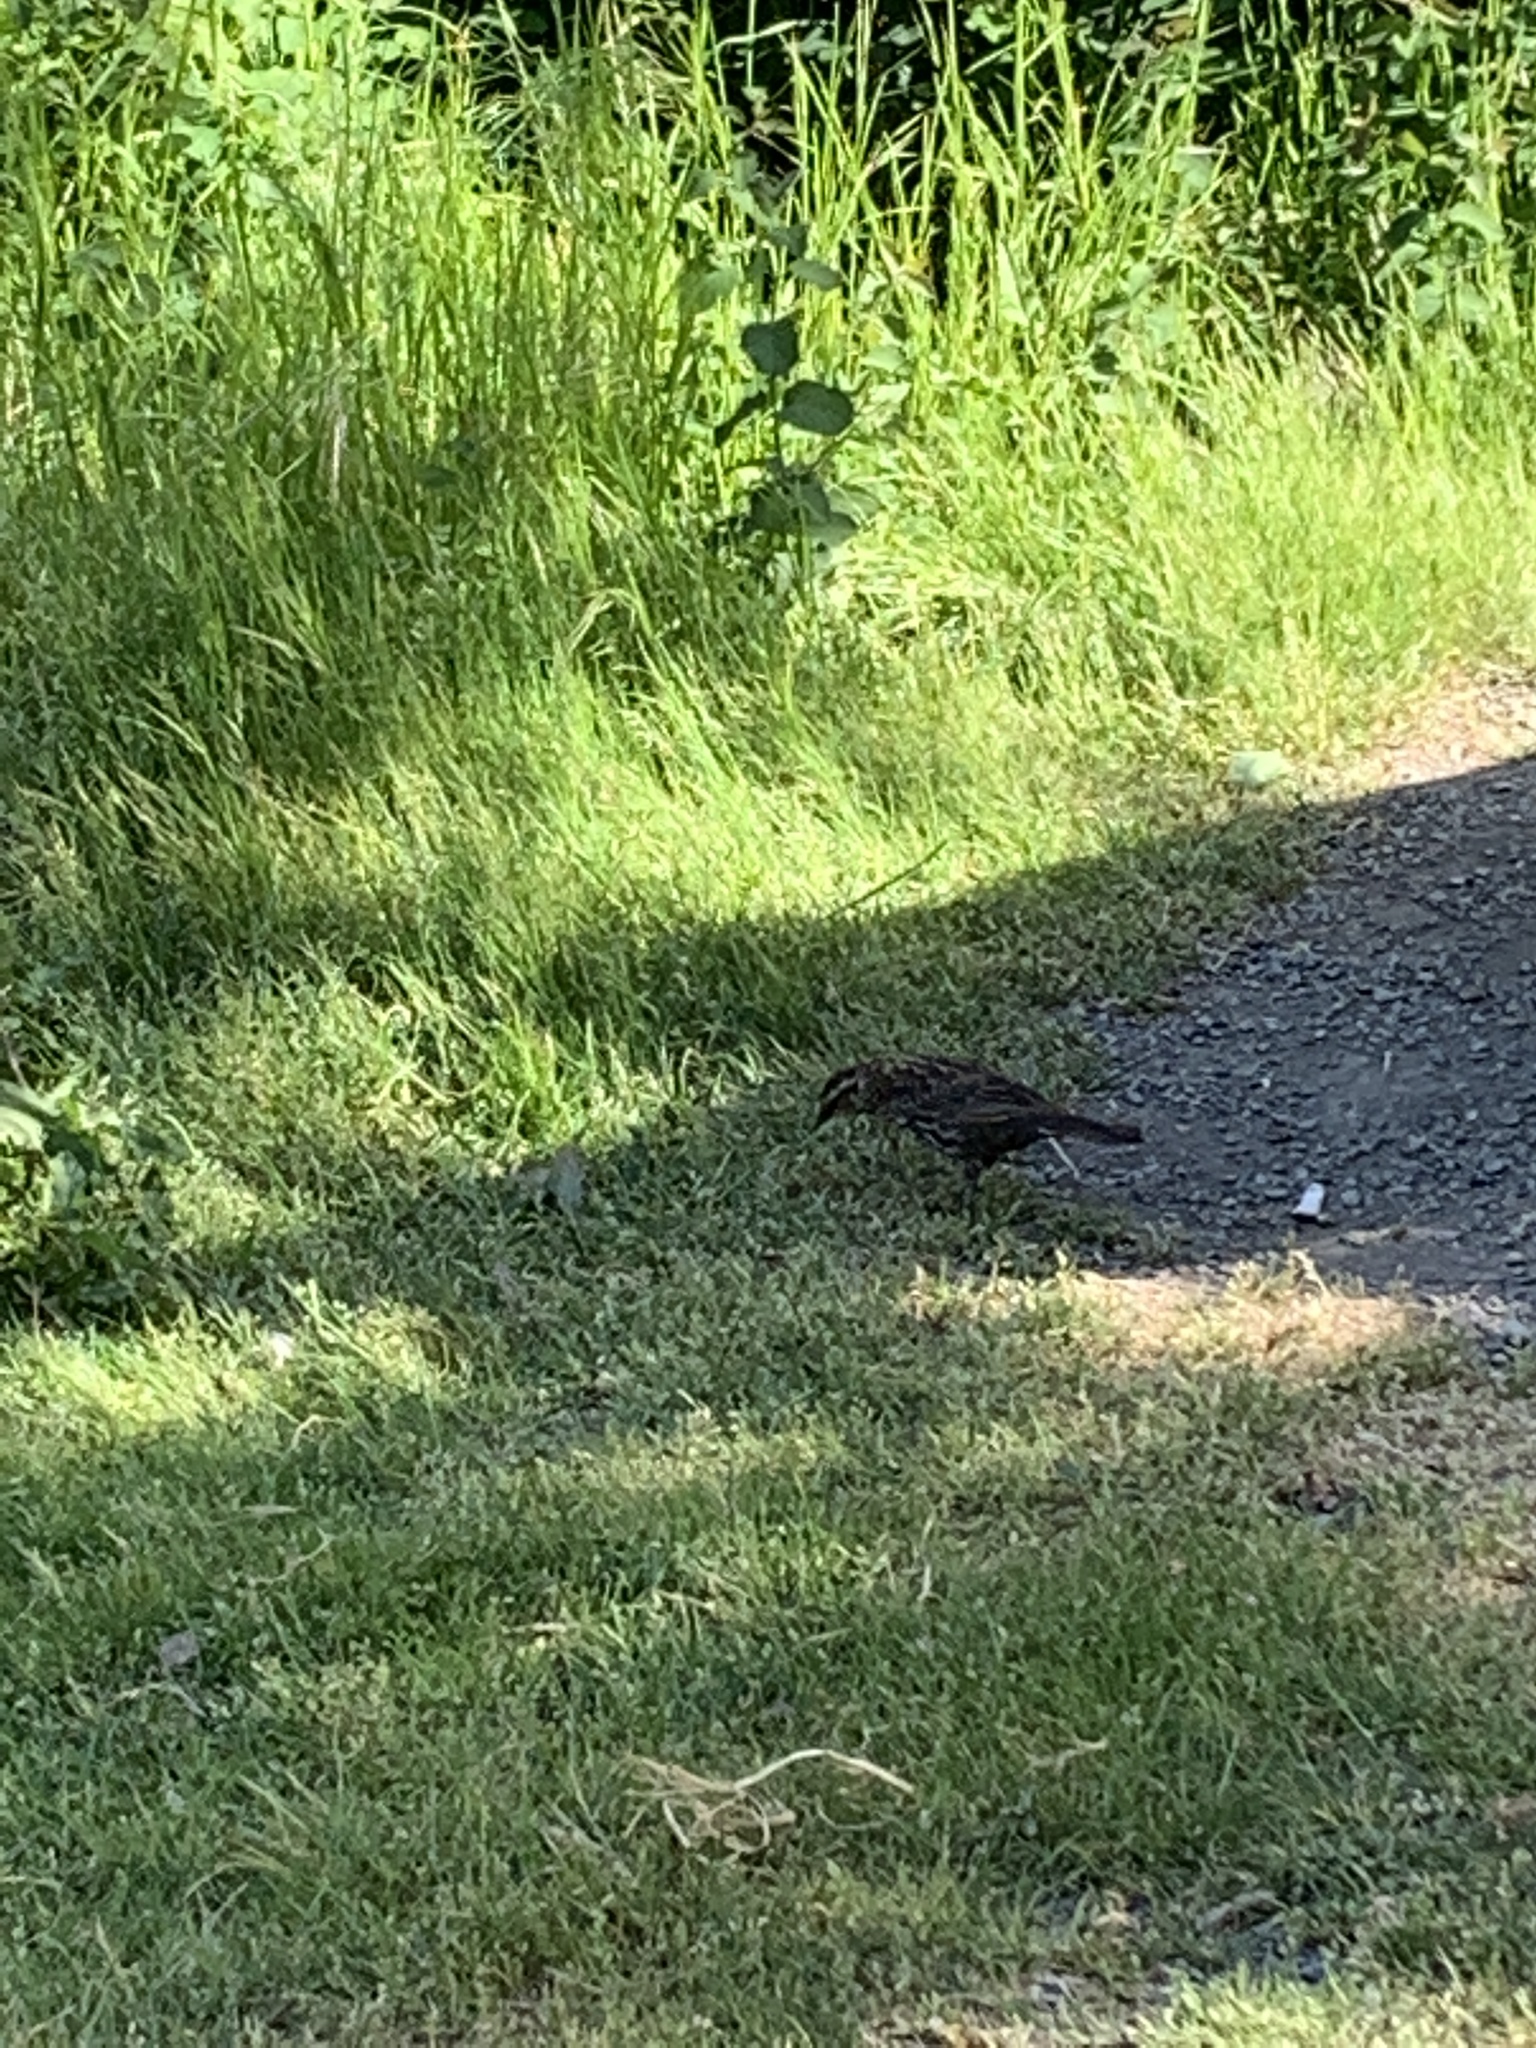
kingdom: Animalia
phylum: Chordata
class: Aves
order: Passeriformes
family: Icteridae
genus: Agelaius
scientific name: Agelaius phoeniceus
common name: Red-winged blackbird
